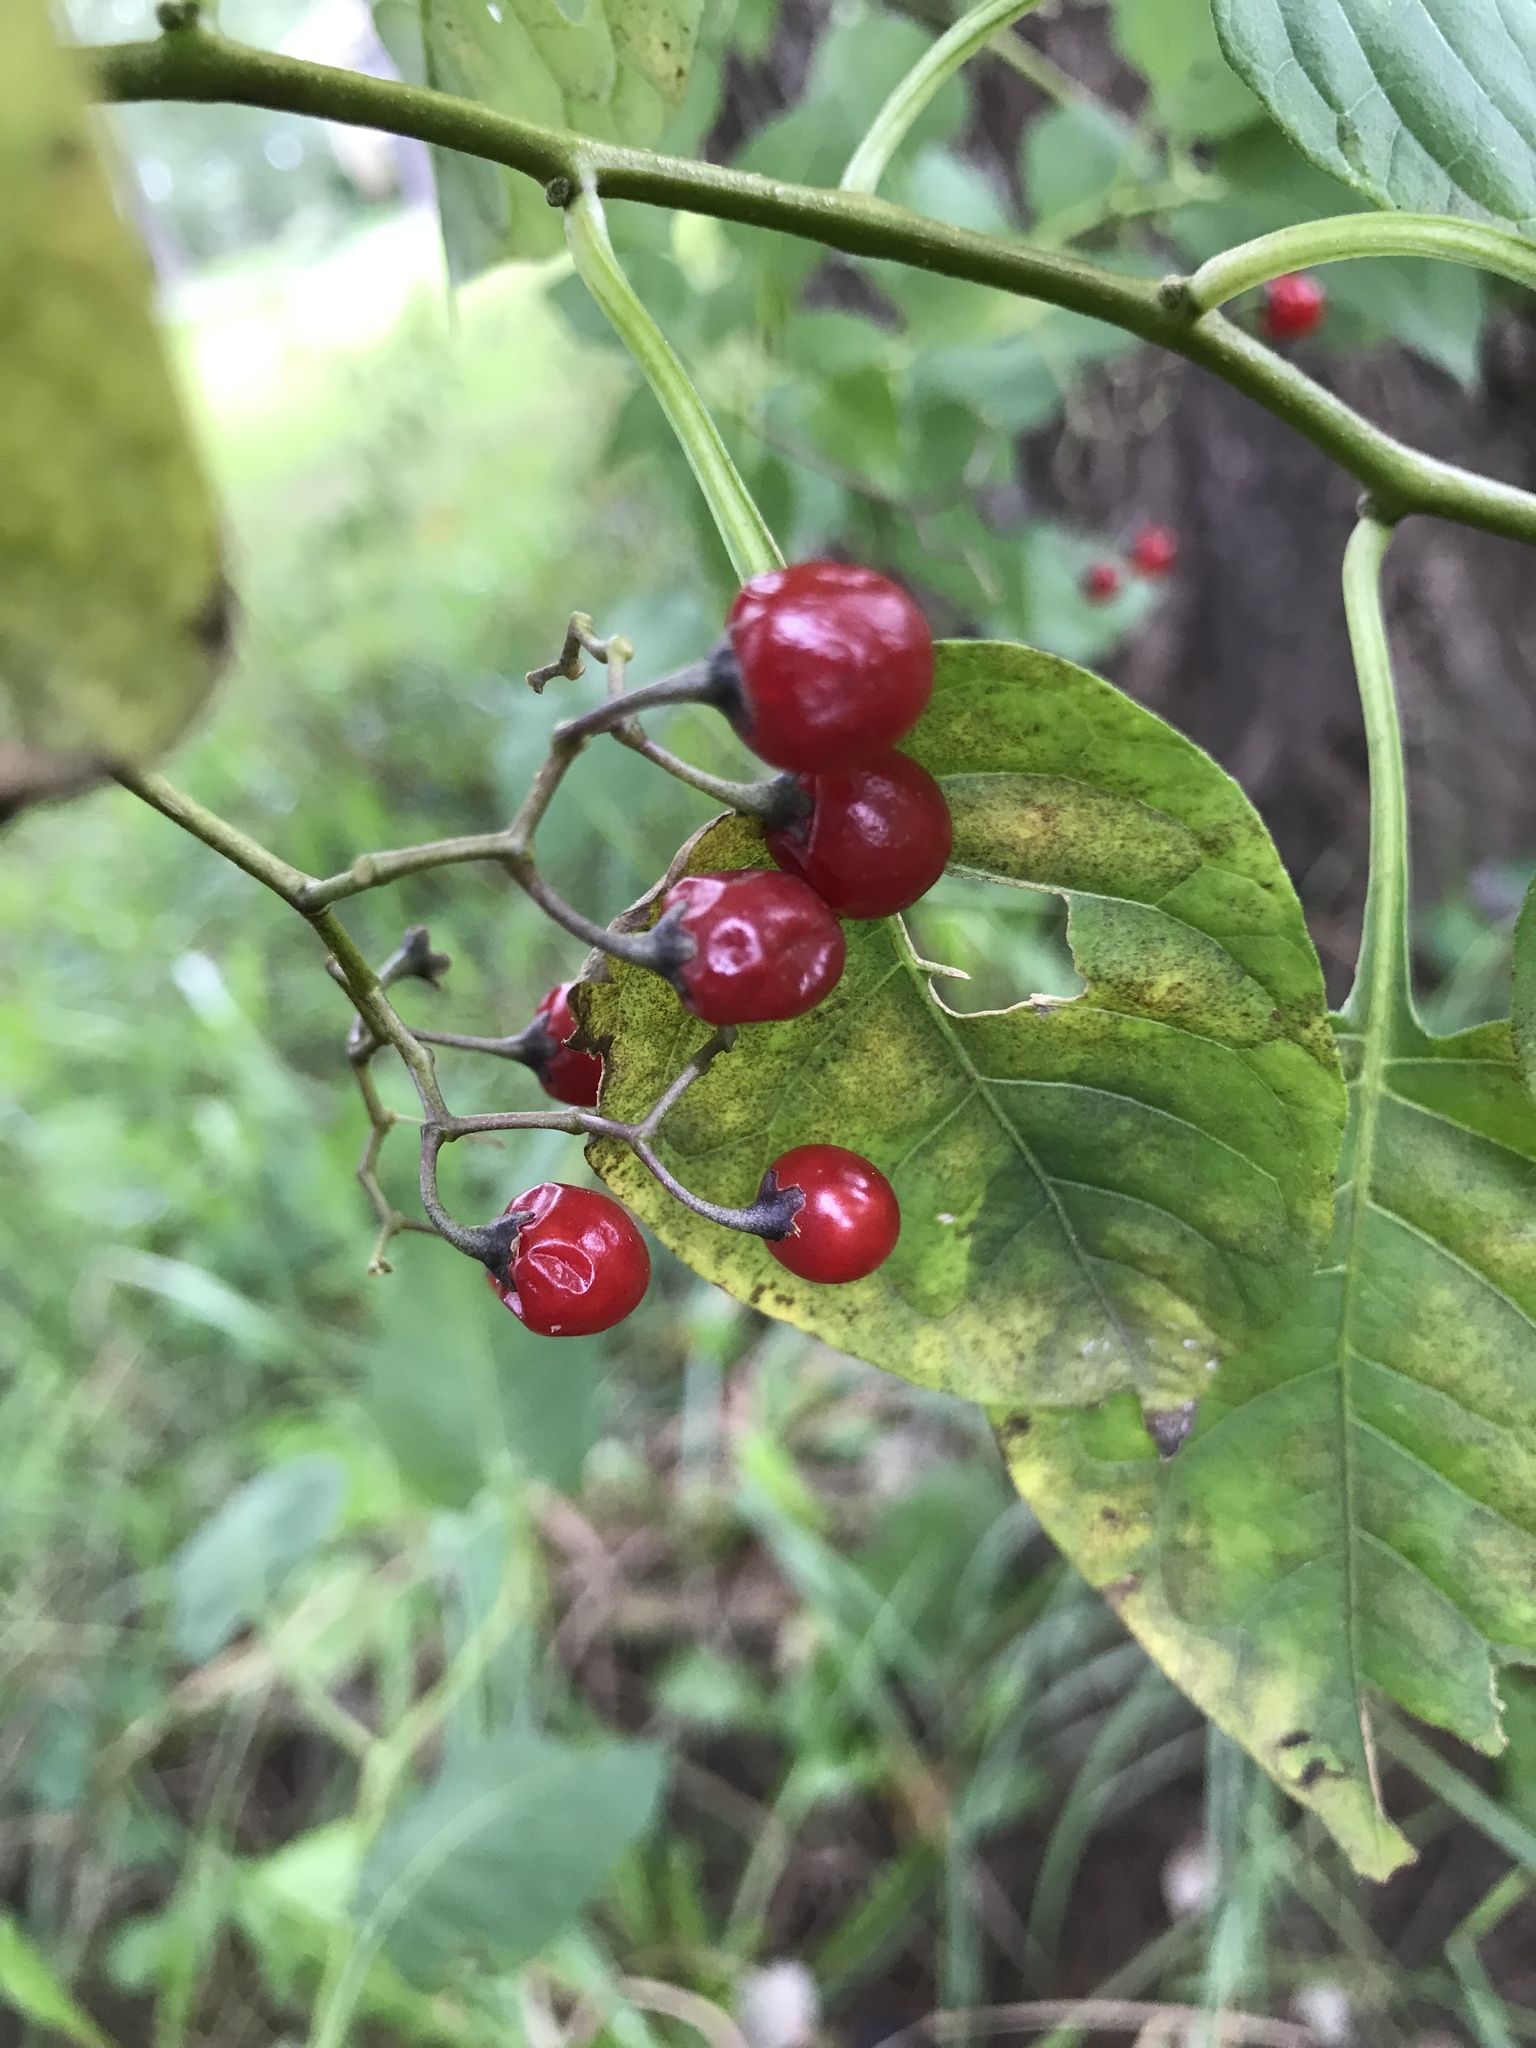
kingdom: Plantae
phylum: Tracheophyta
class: Magnoliopsida
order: Solanales
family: Solanaceae
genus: Solanum
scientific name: Solanum dulcamara
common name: Climbing nightshade
